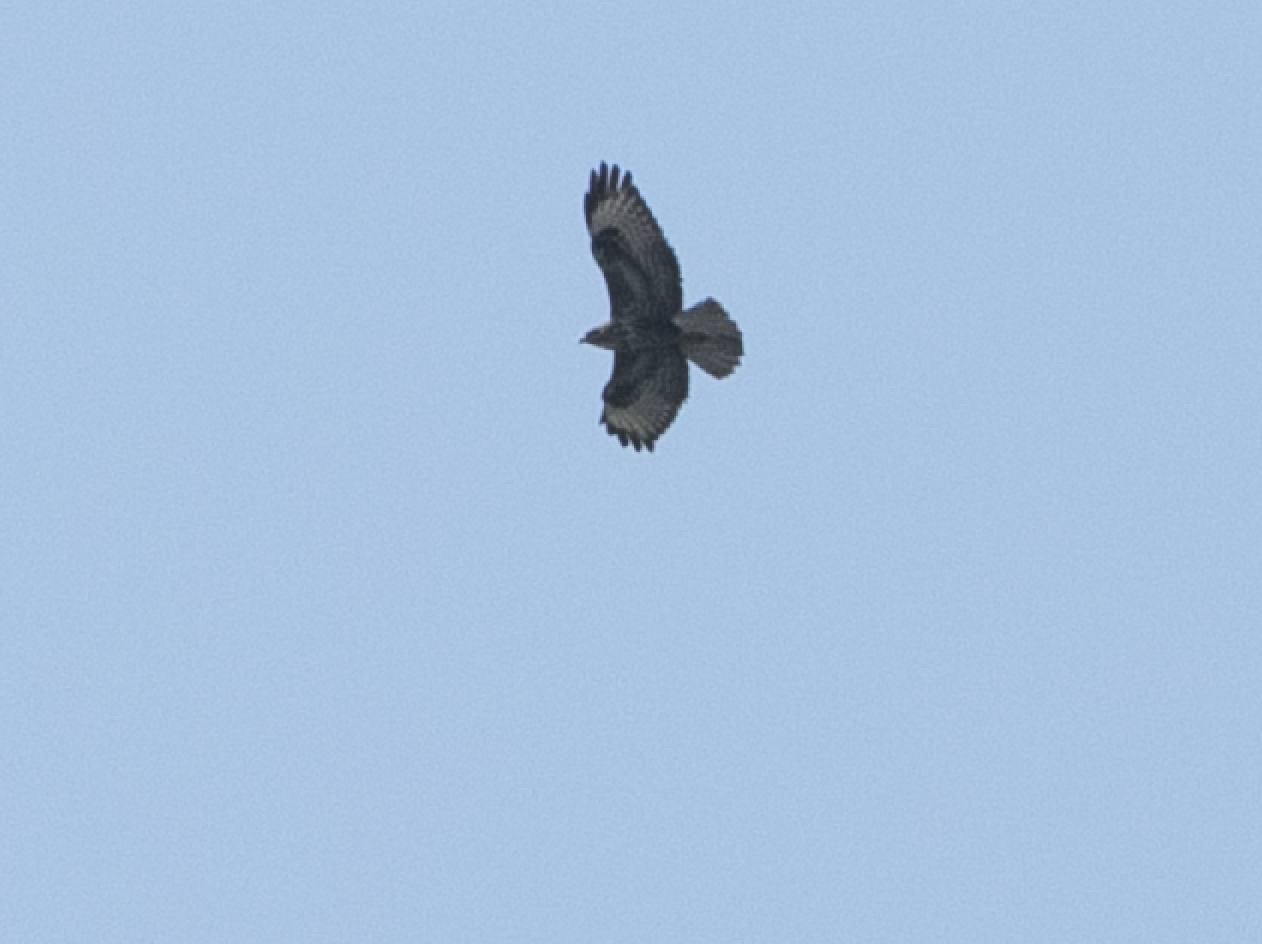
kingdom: Animalia
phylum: Chordata
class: Aves
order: Accipitriformes
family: Accipitridae
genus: Buteo
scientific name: Buteo buteo
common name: Common buzzard
